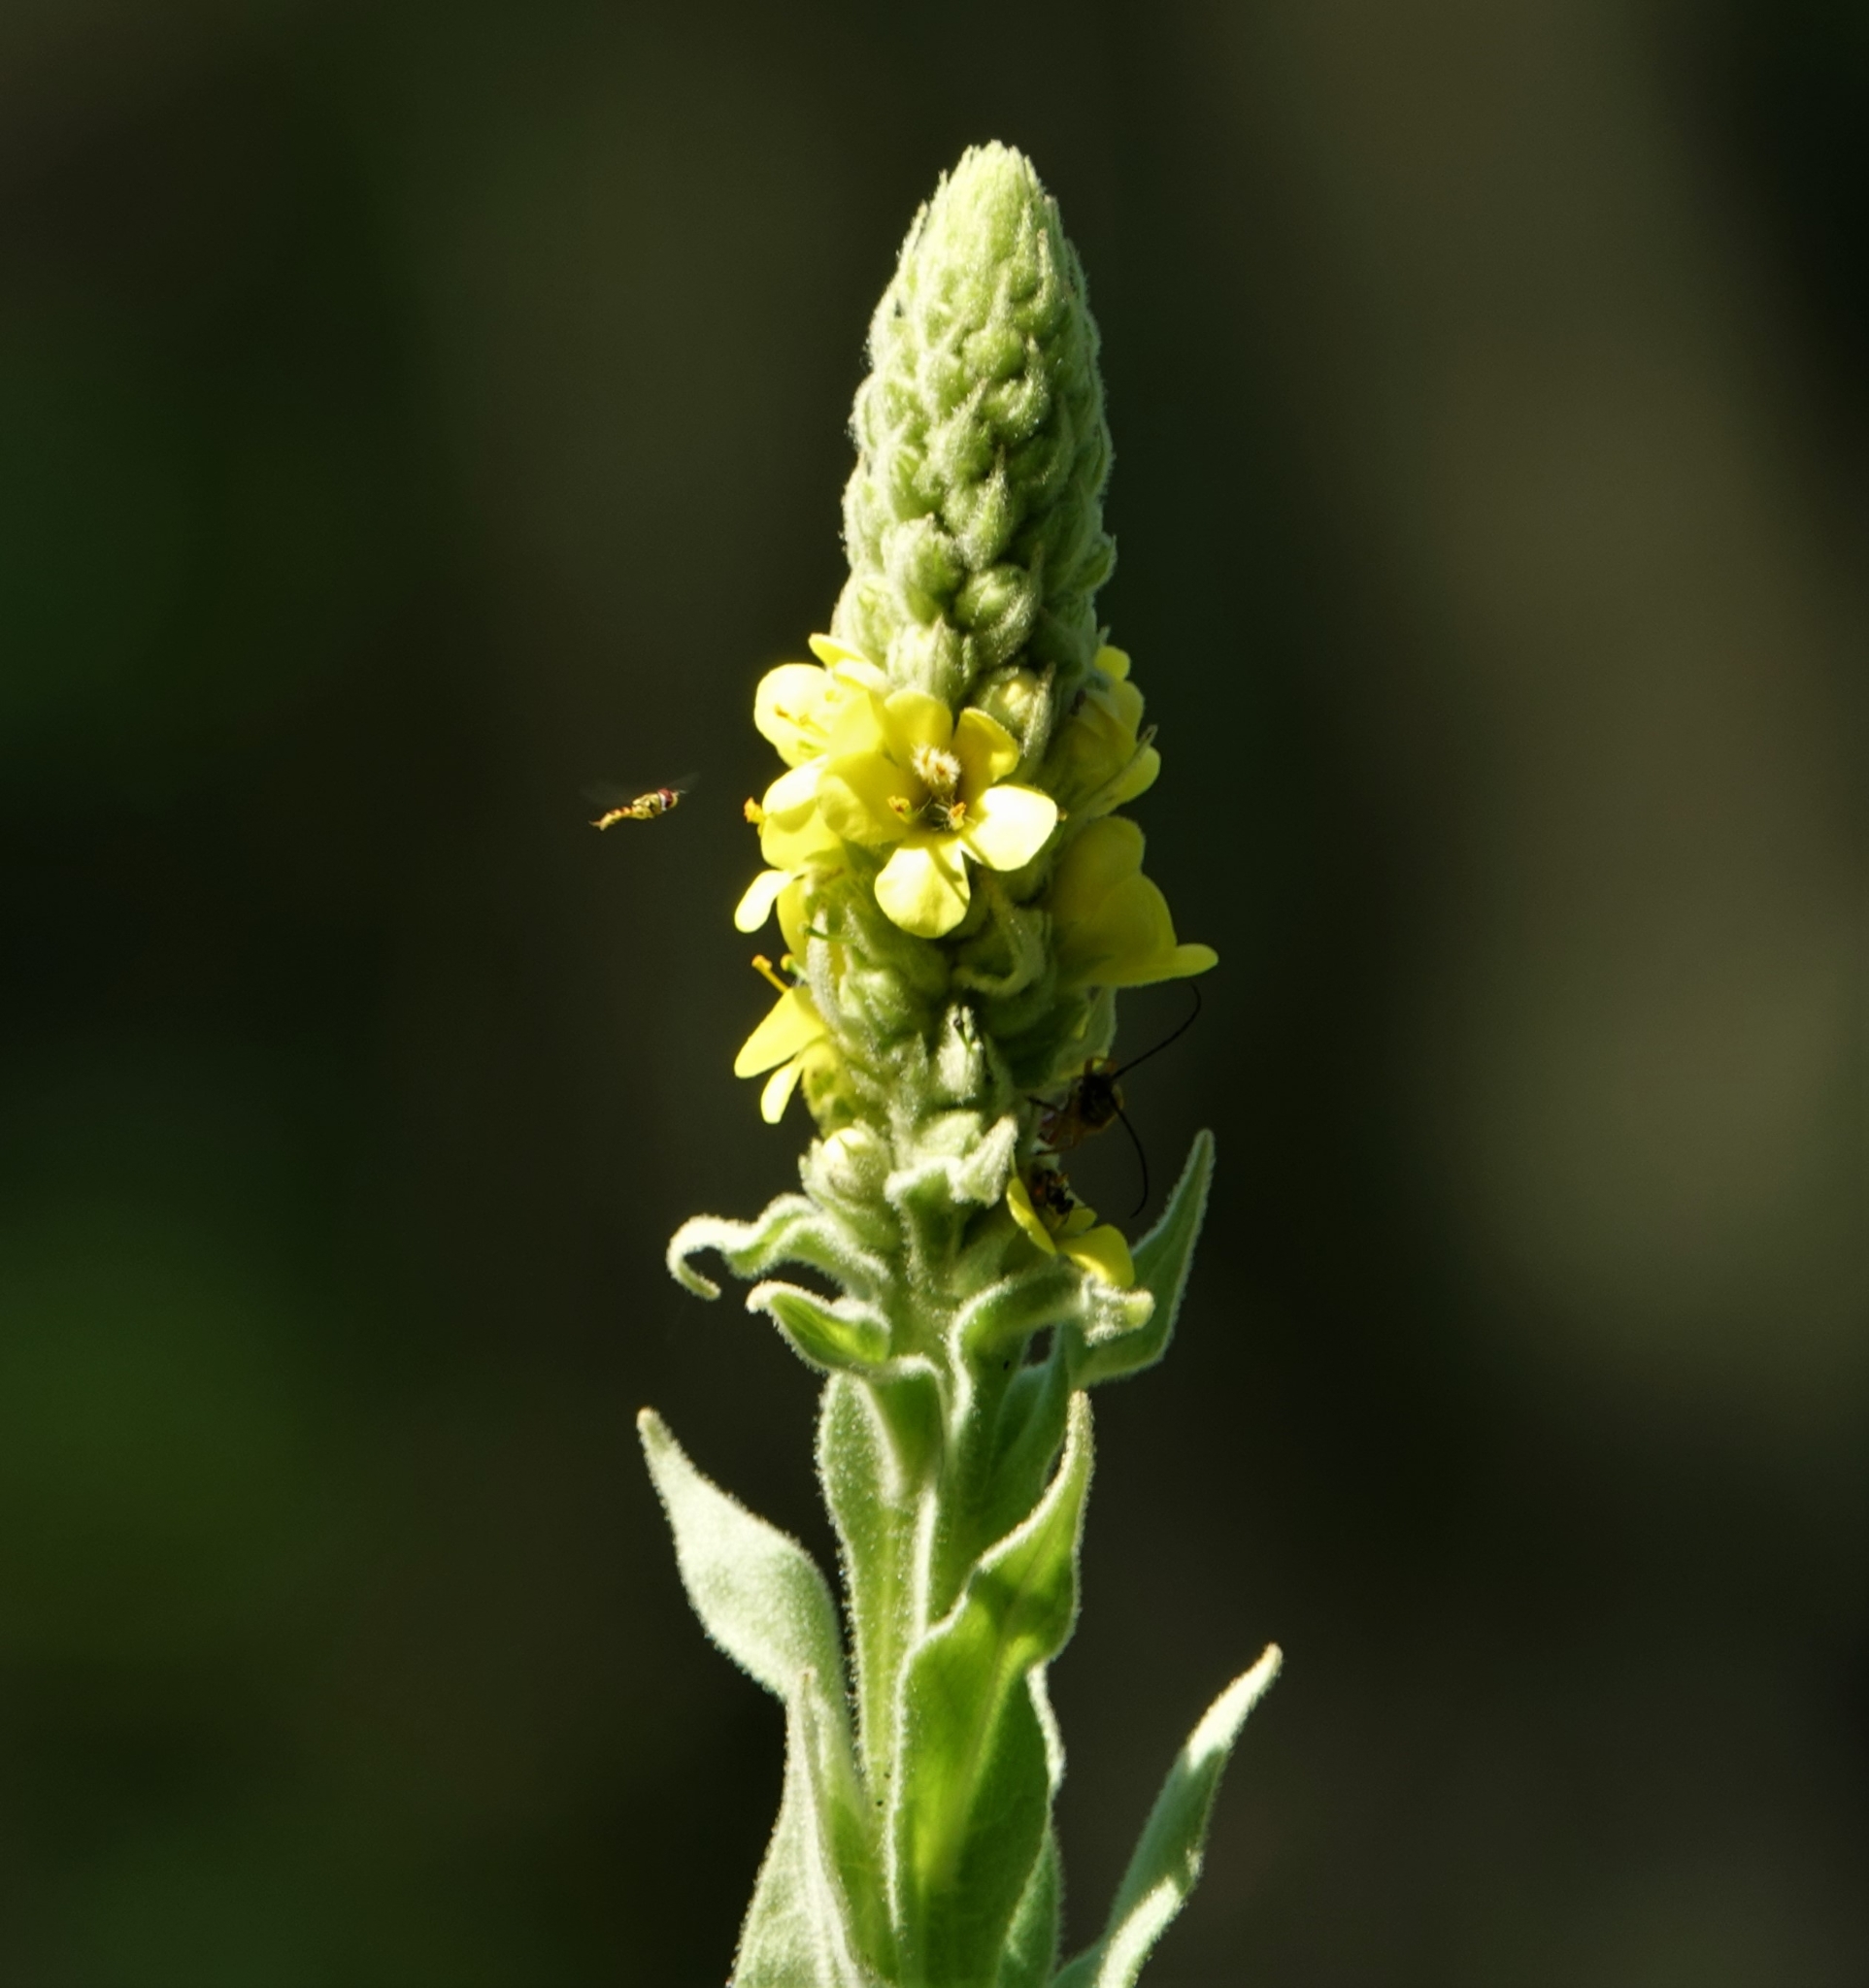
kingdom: Plantae
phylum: Tracheophyta
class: Magnoliopsida
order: Lamiales
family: Scrophulariaceae
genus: Verbascum
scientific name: Verbascum thapsus
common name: Common mullein
